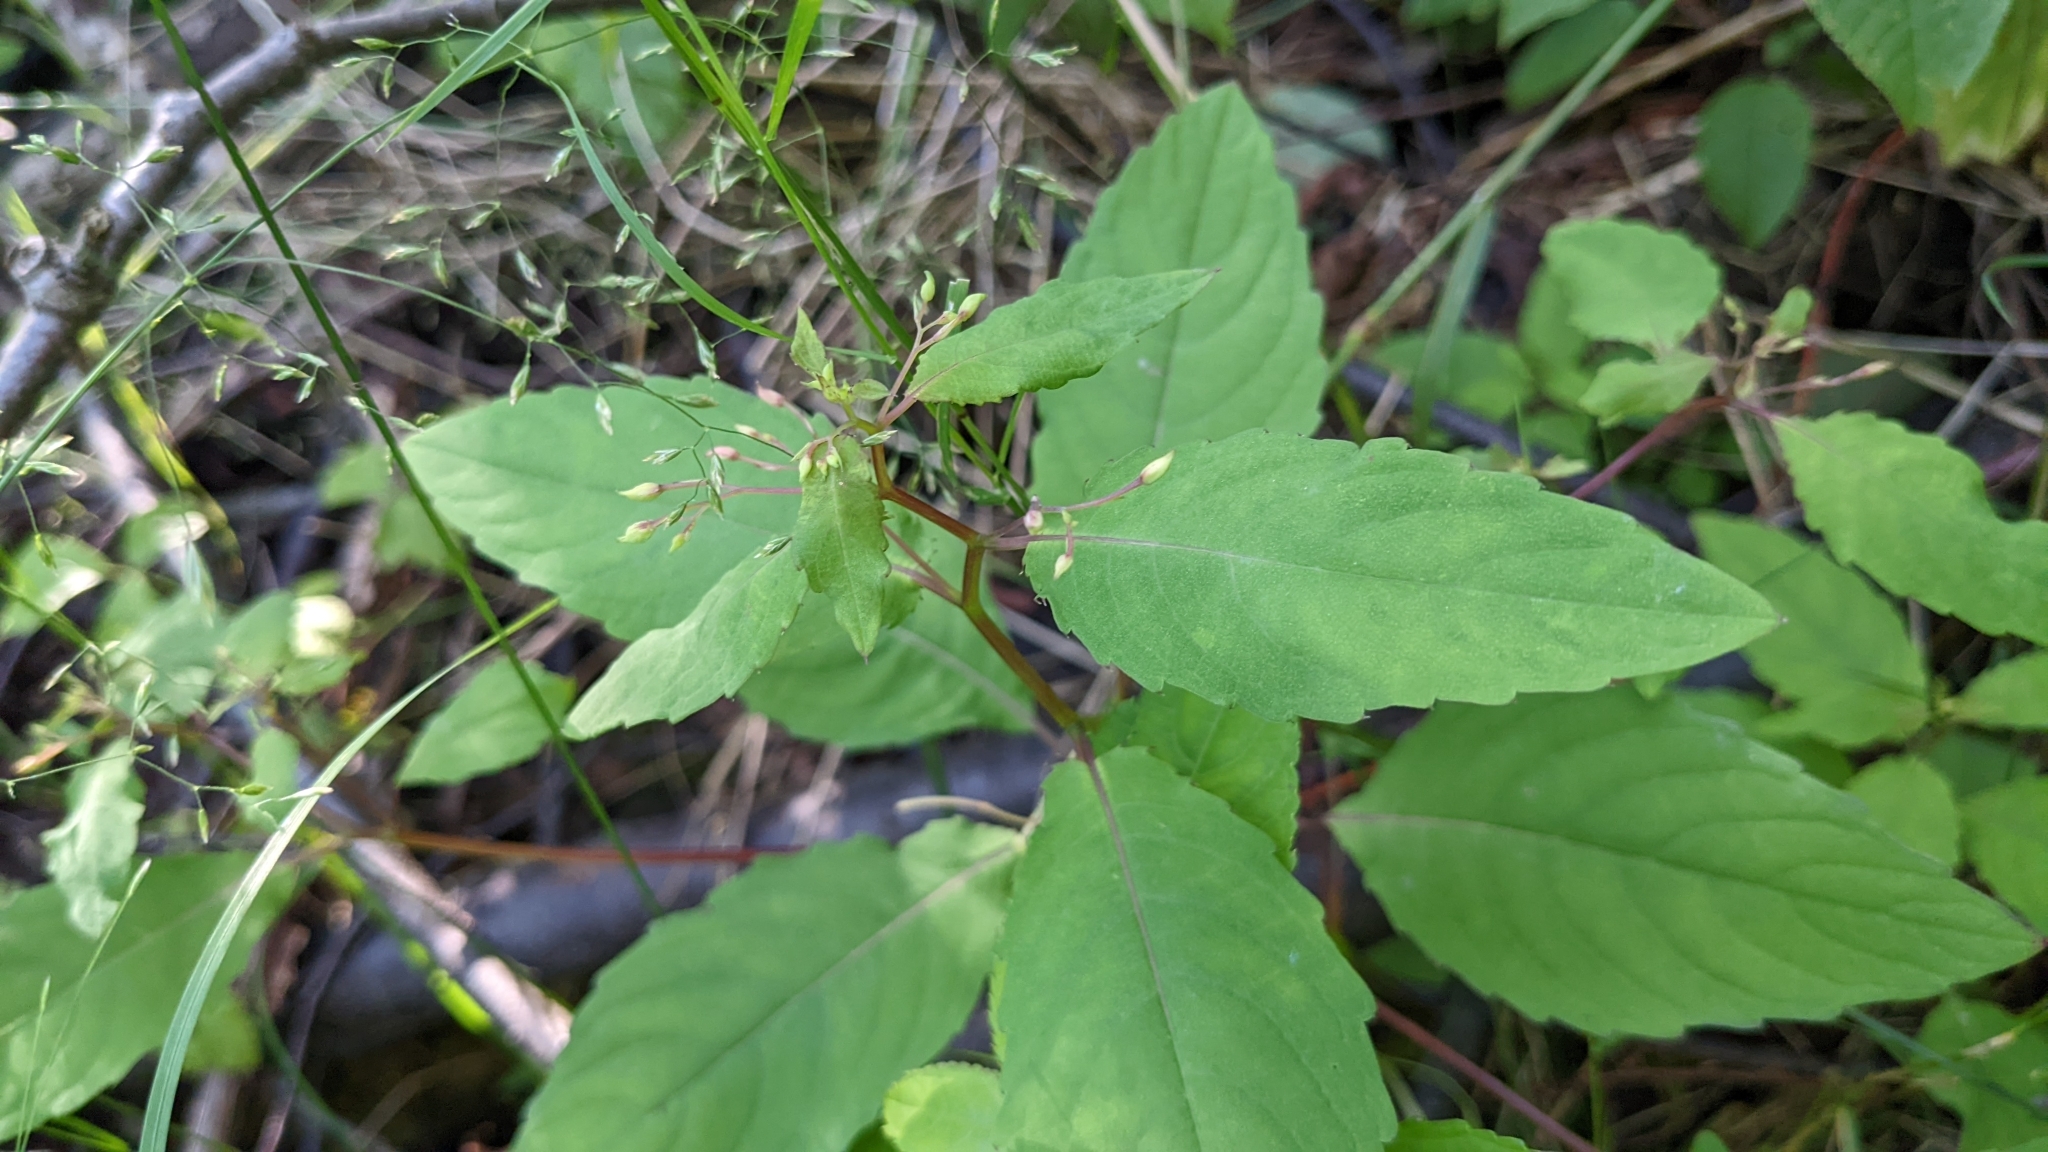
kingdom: Plantae
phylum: Tracheophyta
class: Magnoliopsida
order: Ericales
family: Balsaminaceae
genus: Impatiens
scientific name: Impatiens noli-tangere
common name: Touch-me-not balsam
